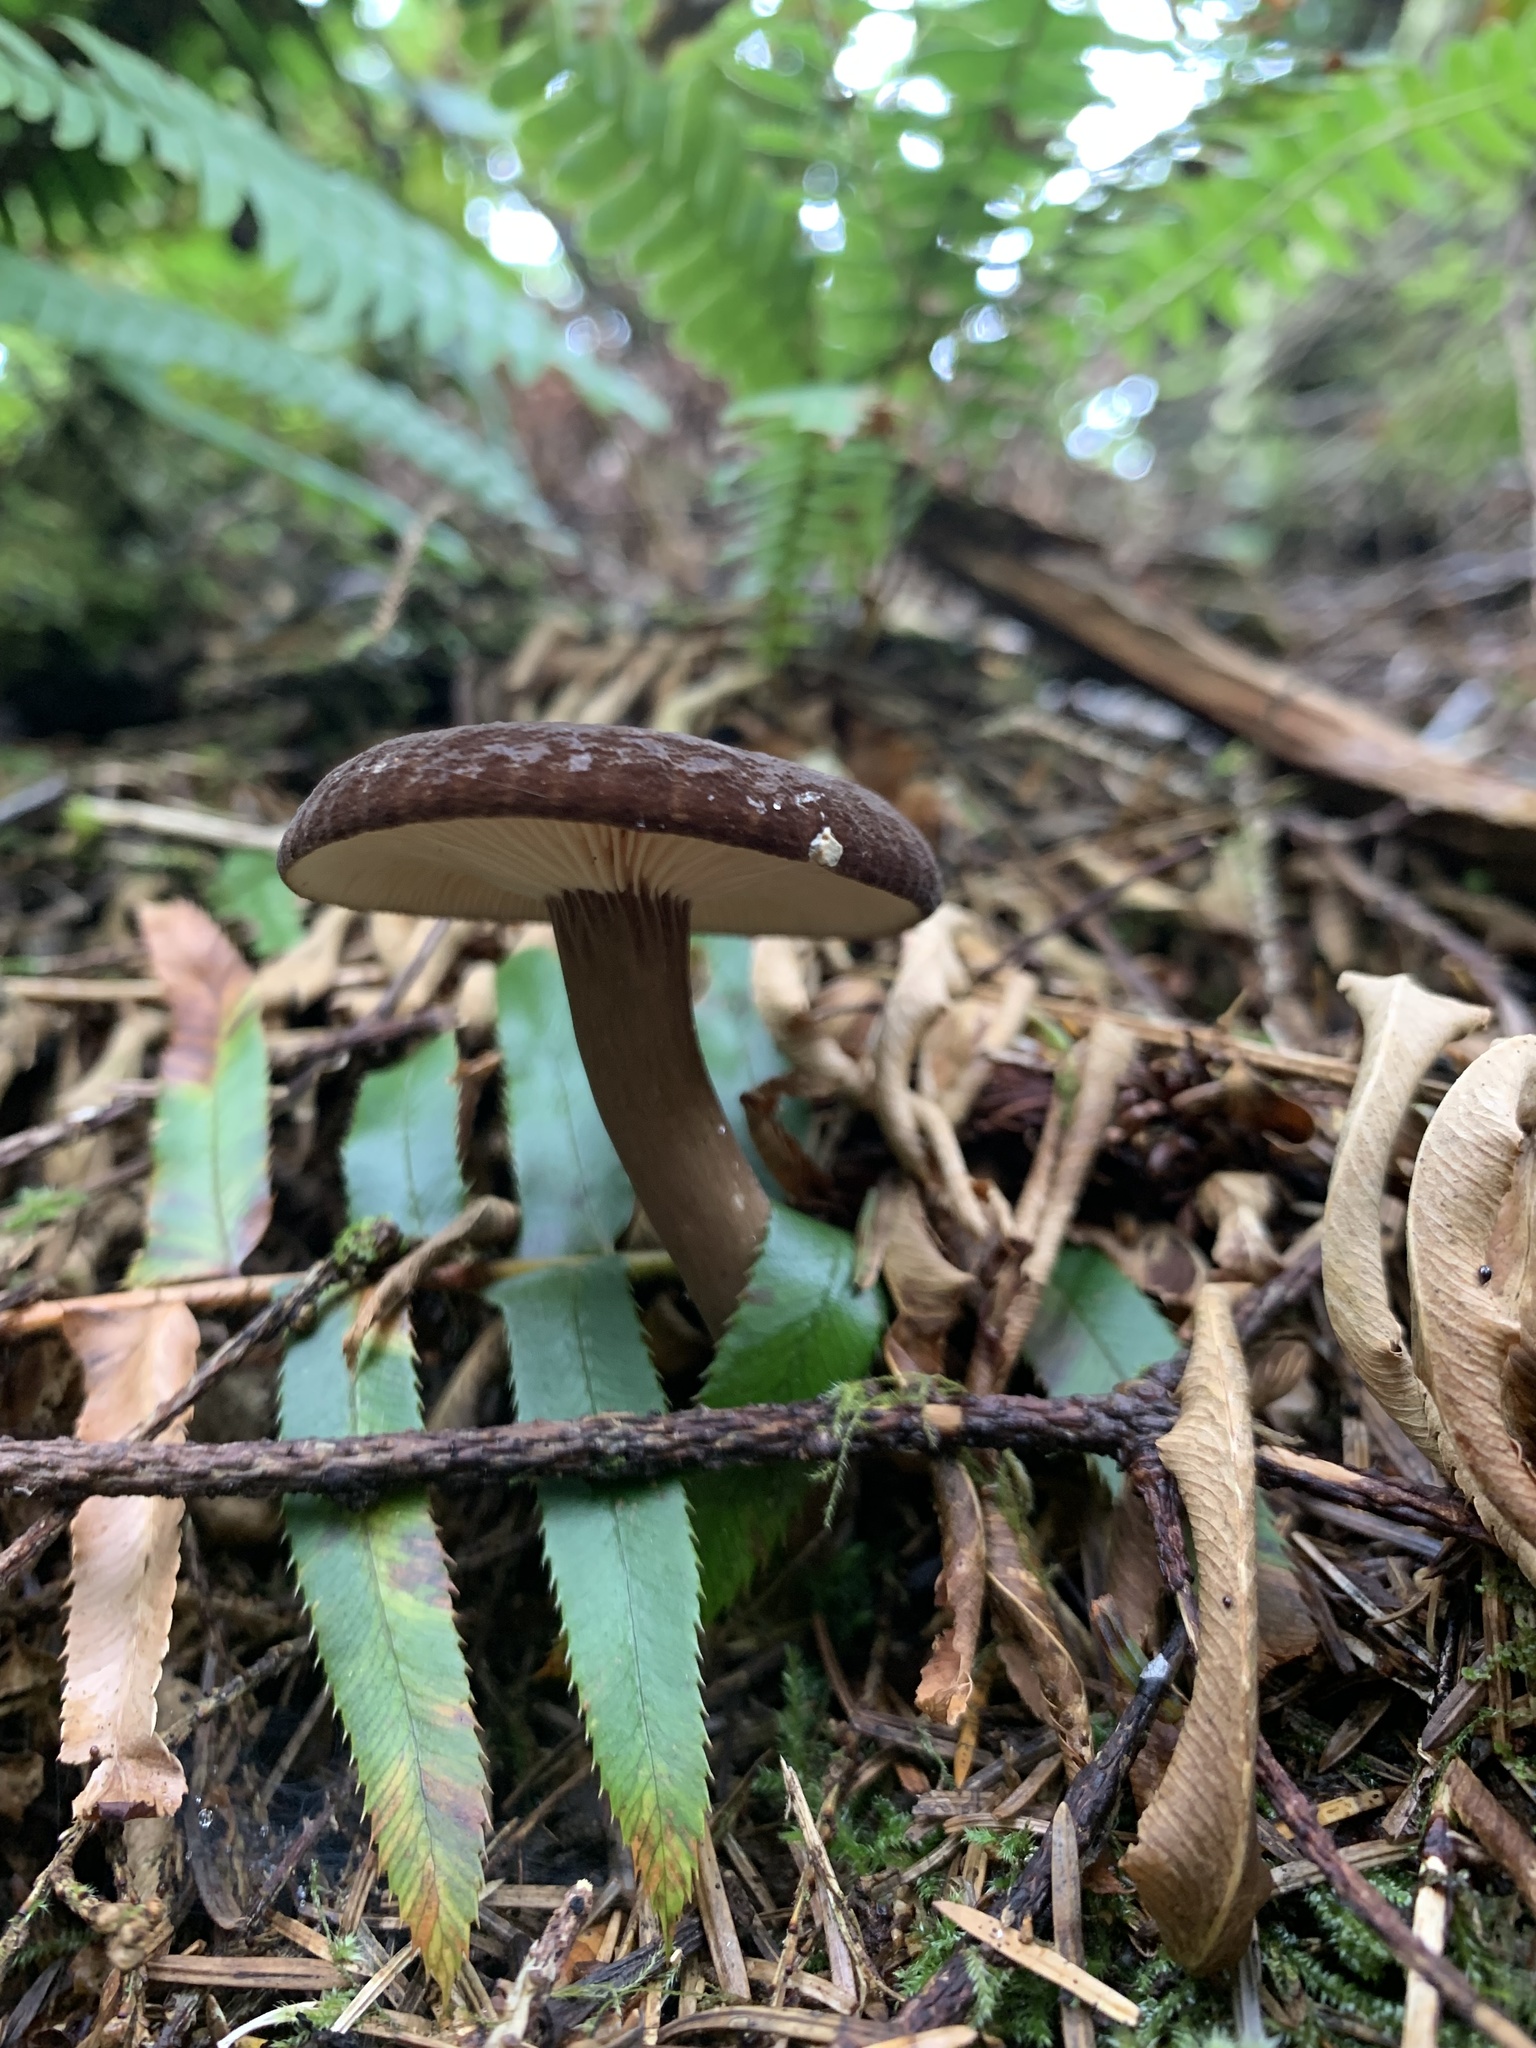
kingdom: Fungi
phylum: Basidiomycota
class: Agaricomycetes
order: Russulales
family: Russulaceae
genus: Lactarius
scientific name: Lactarius fallax
